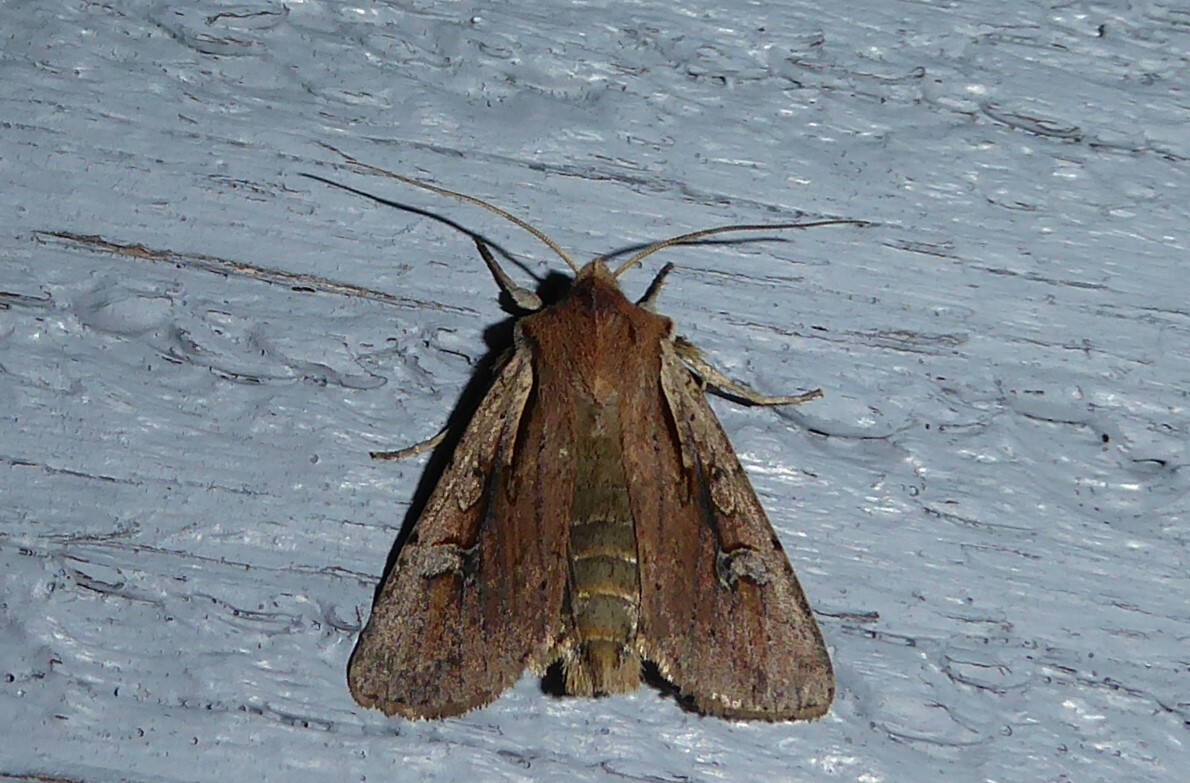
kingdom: Animalia
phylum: Arthropoda
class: Insecta
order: Lepidoptera
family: Noctuidae
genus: Ichneutica
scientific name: Ichneutica atristriga
